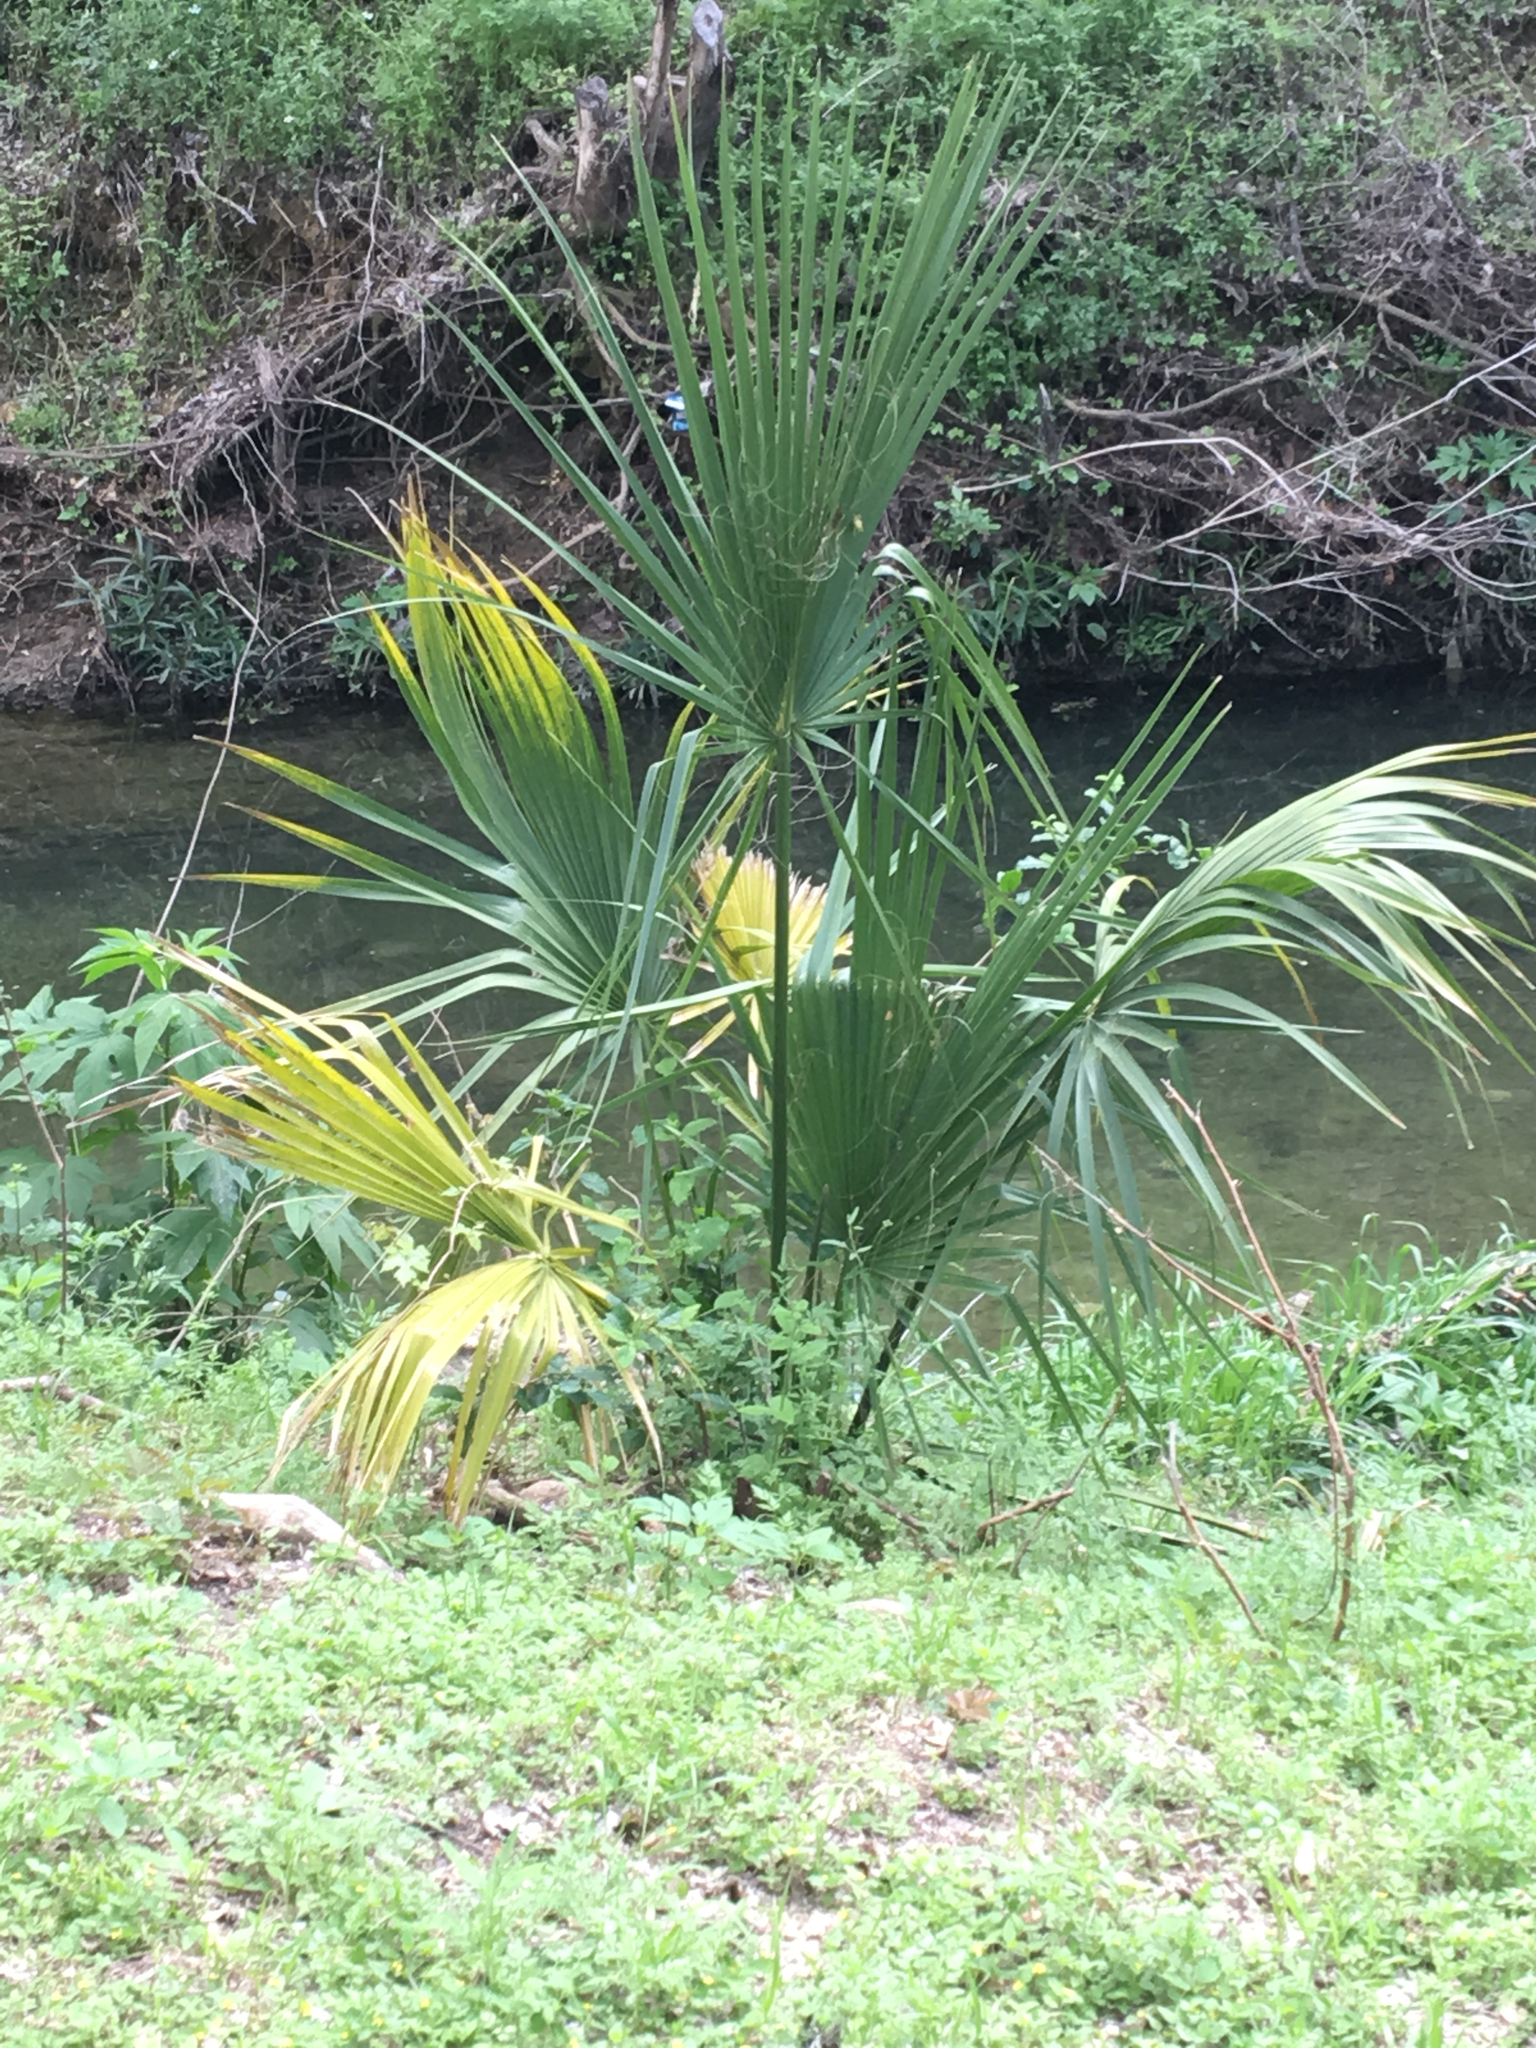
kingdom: Plantae
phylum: Tracheophyta
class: Liliopsida
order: Arecales
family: Arecaceae
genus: Sabal
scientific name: Sabal mexicana
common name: Texas palmetto
